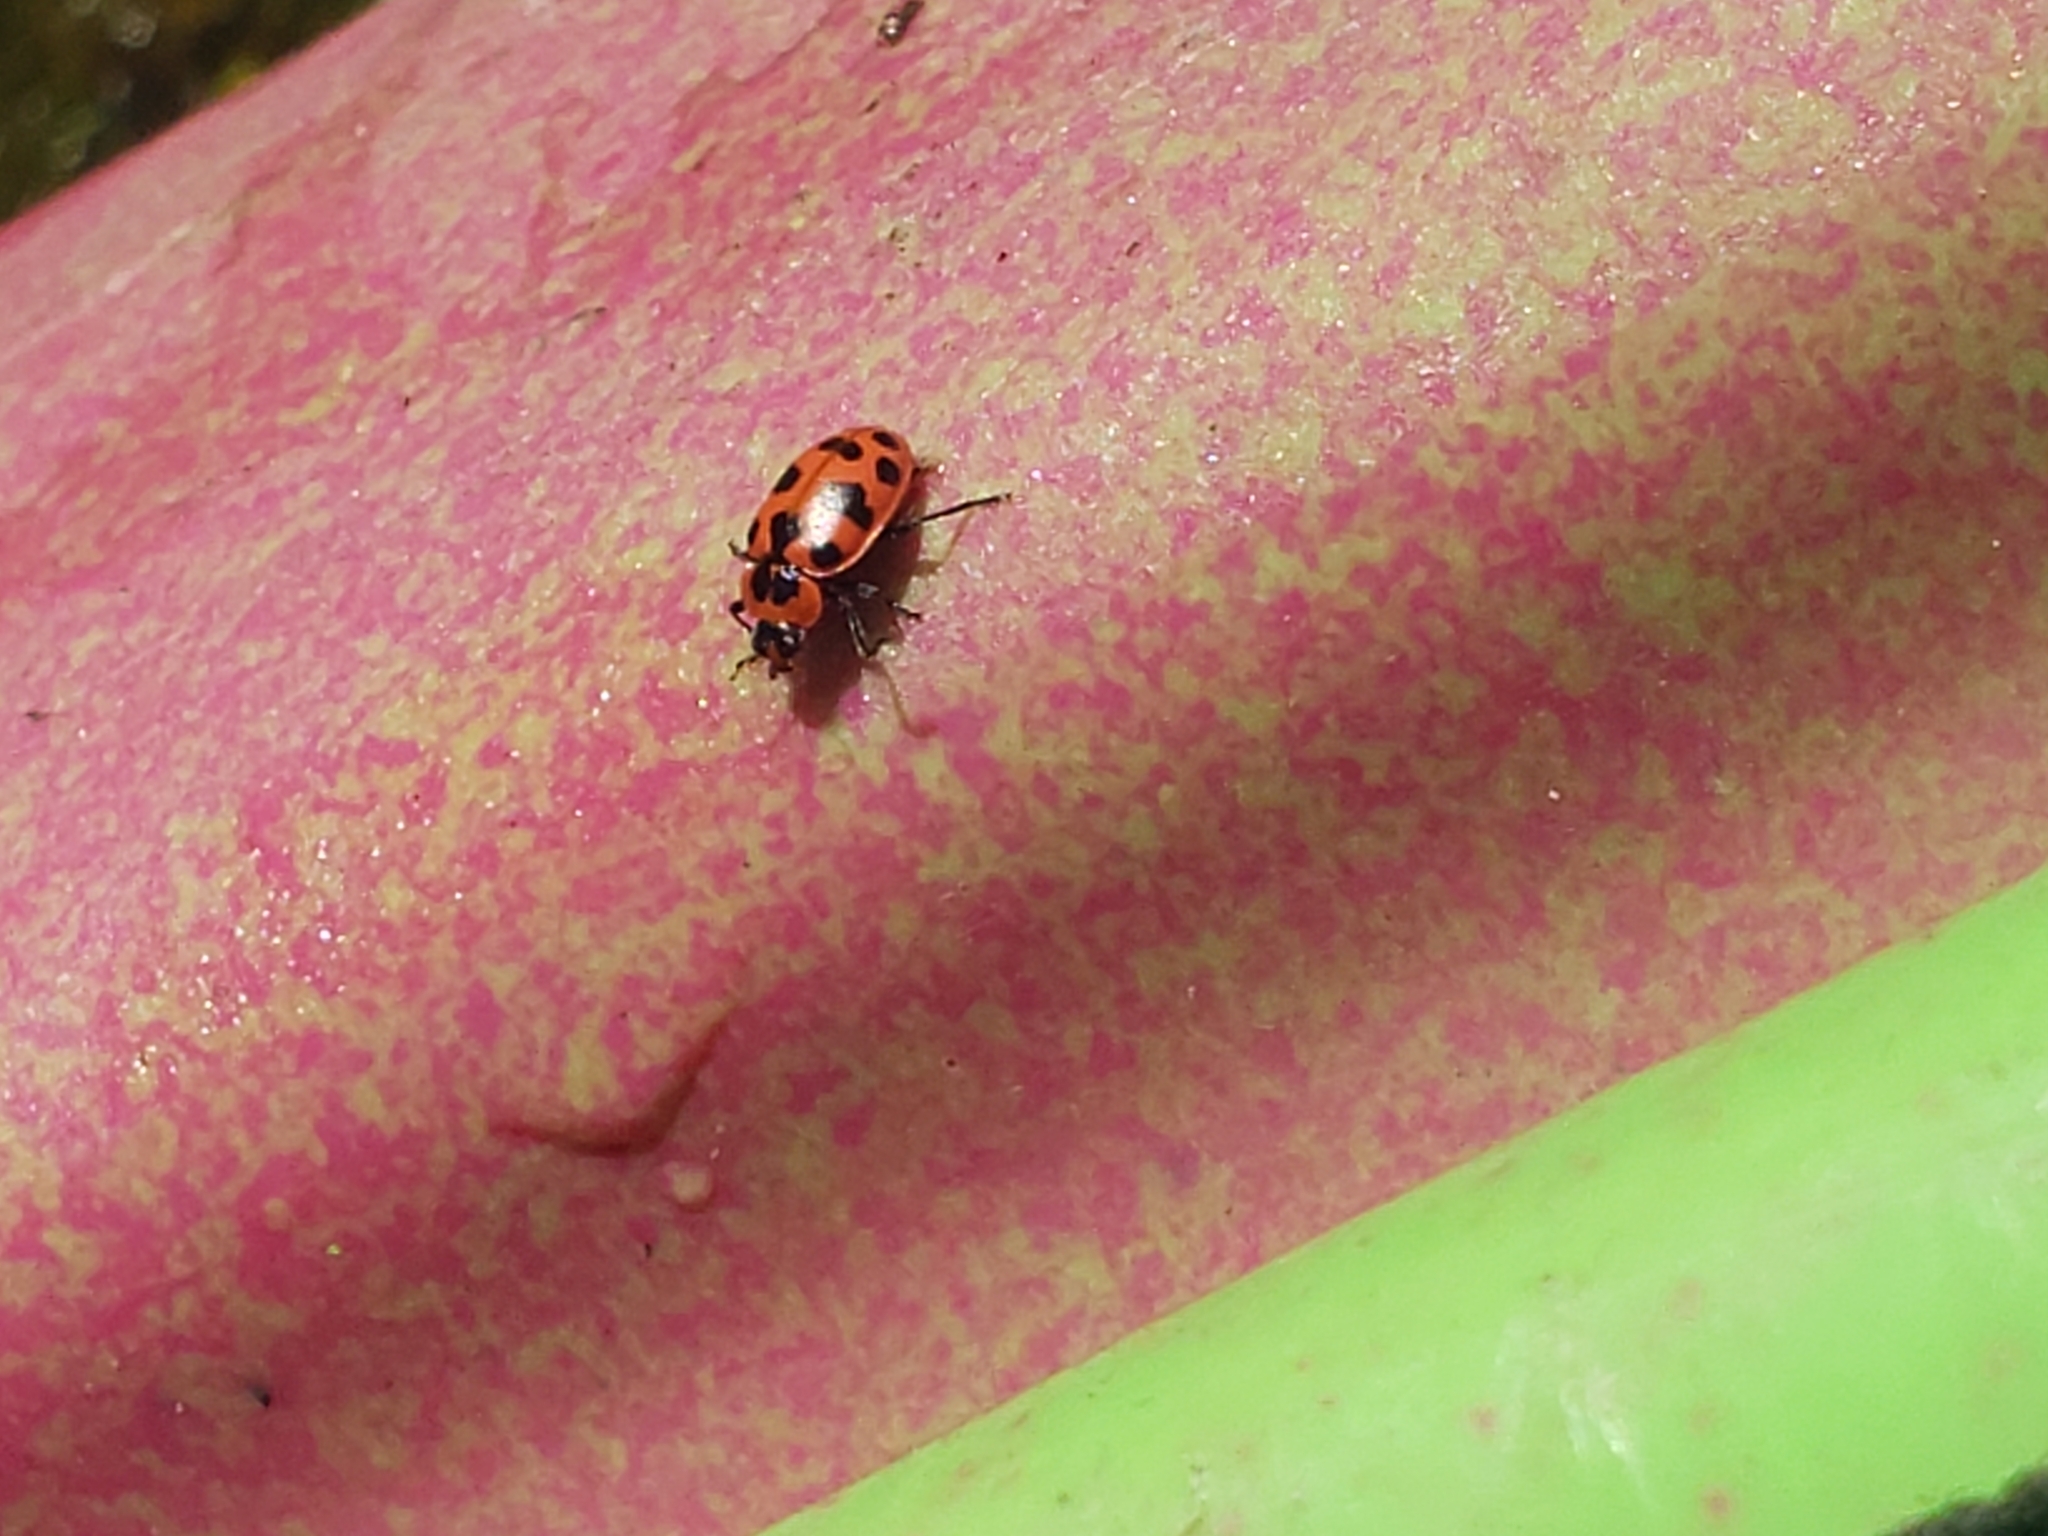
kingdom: Animalia
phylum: Arthropoda
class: Insecta
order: Coleoptera
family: Coccinellidae
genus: Coleomegilla
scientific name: Coleomegilla maculata
